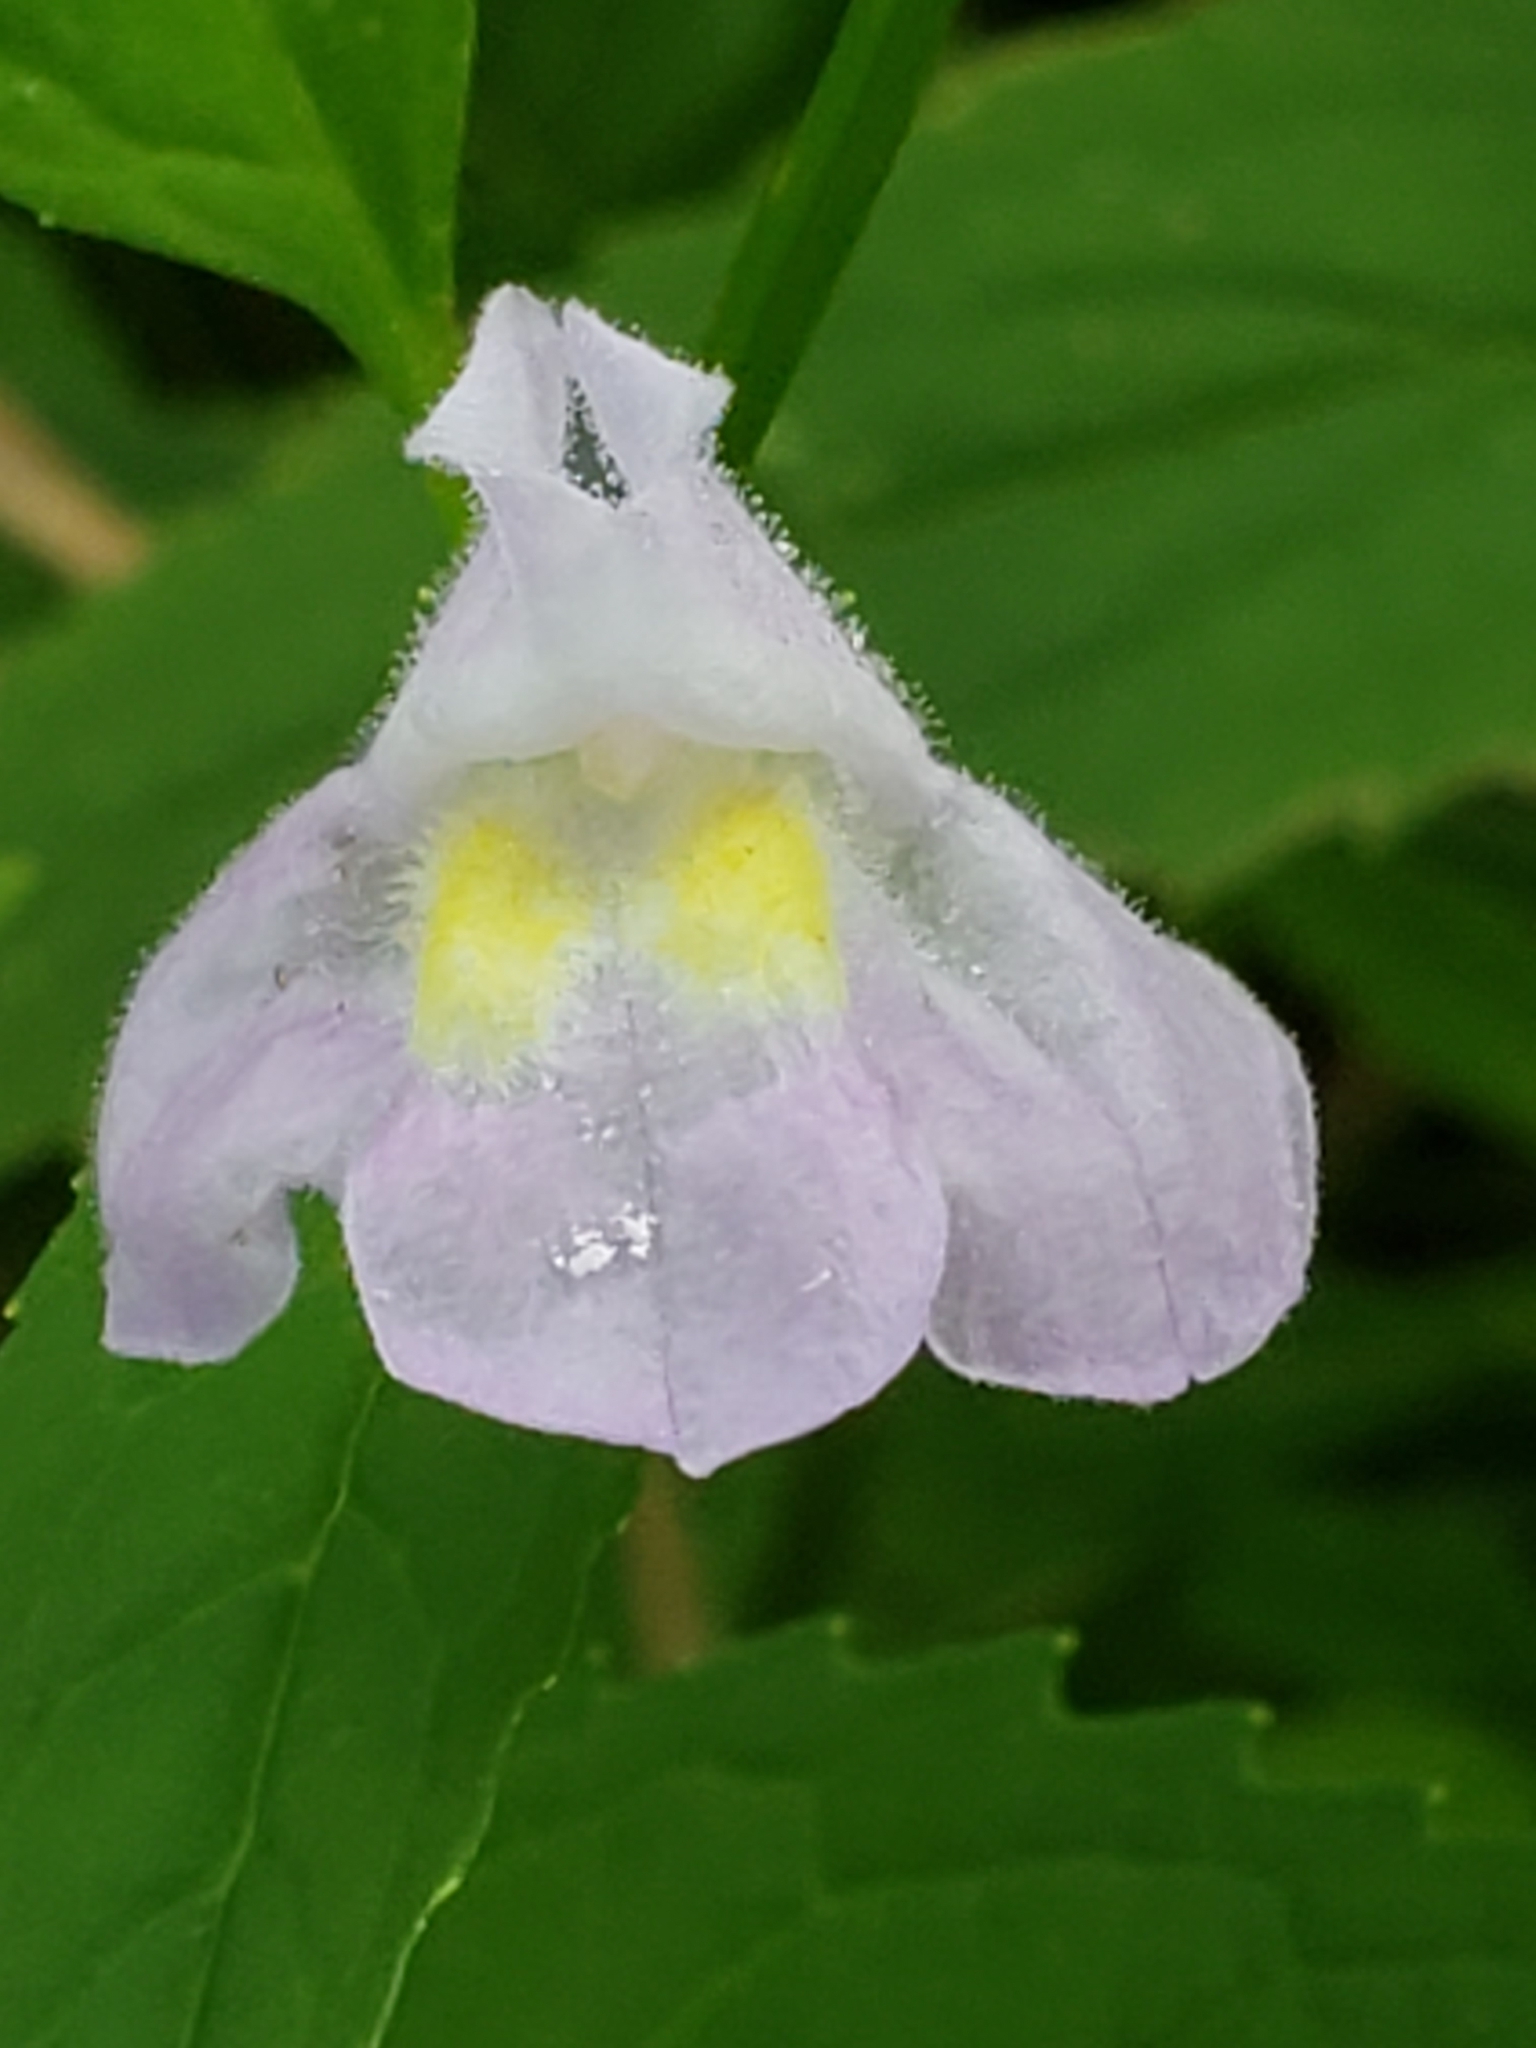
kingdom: Plantae
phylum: Tracheophyta
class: Magnoliopsida
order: Lamiales
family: Phrymaceae
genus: Mimulus
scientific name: Mimulus alatus
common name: Sharp-wing monkey-flower
